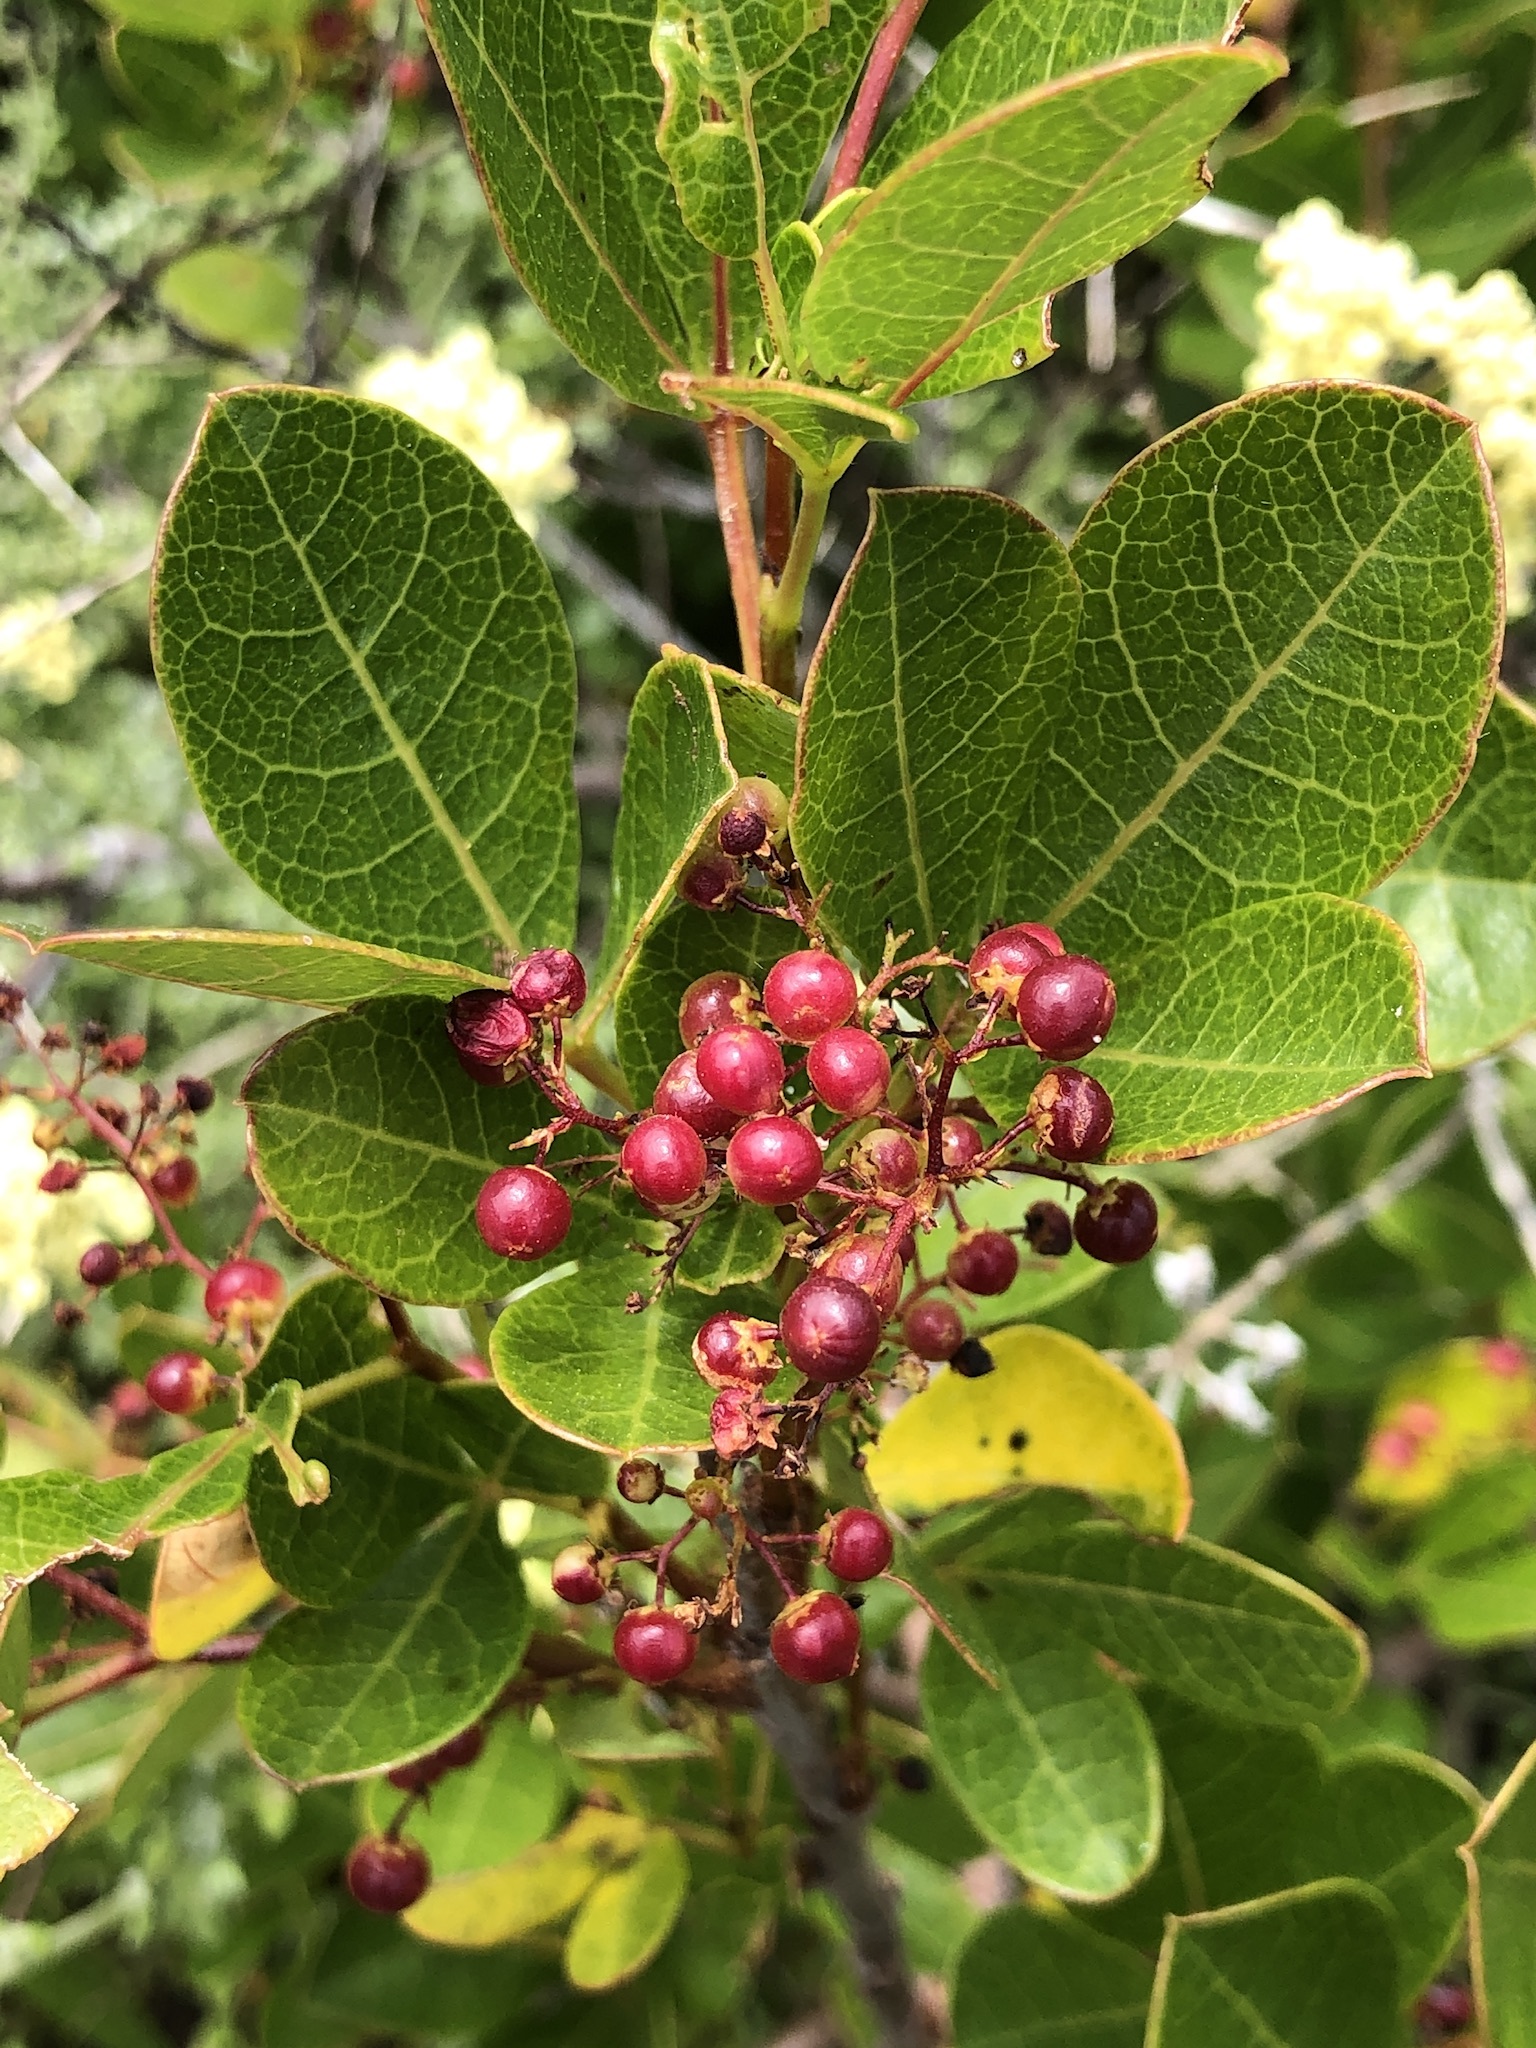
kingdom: Plantae
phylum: Tracheophyta
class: Magnoliopsida
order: Sapindales
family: Anacardiaceae
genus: Searsia
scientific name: Searsia laevigata
